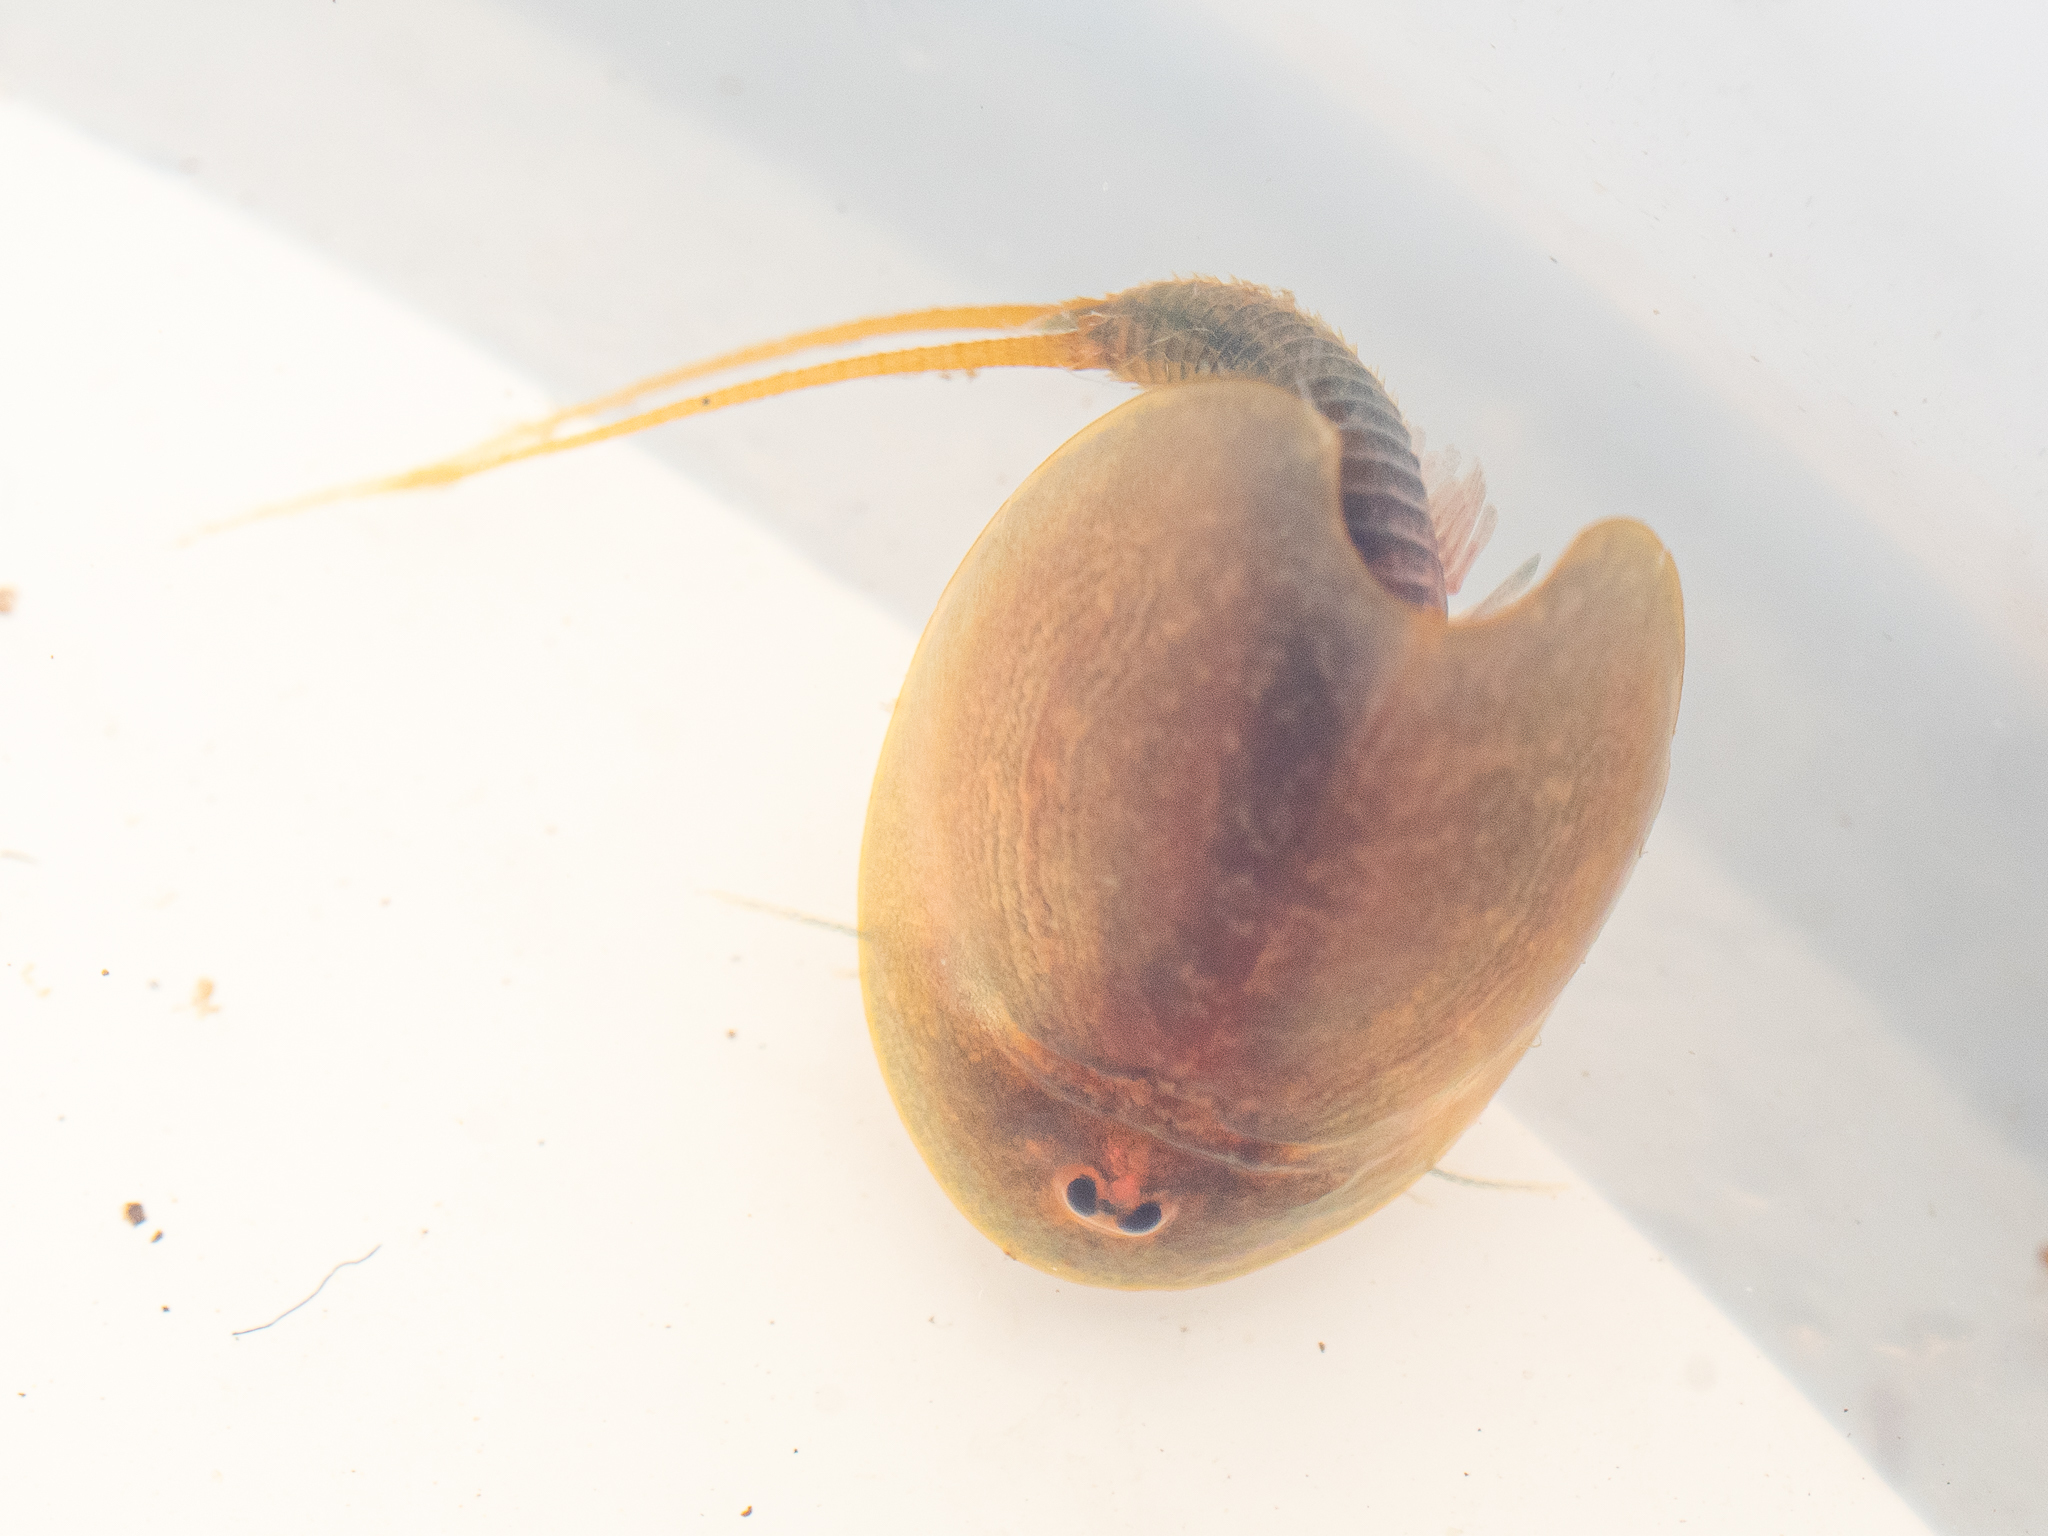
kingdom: Animalia
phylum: Arthropoda
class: Branchiopoda
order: Notostraca
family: Triopsidae
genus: Lepidurus
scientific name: Lepidurus apus
